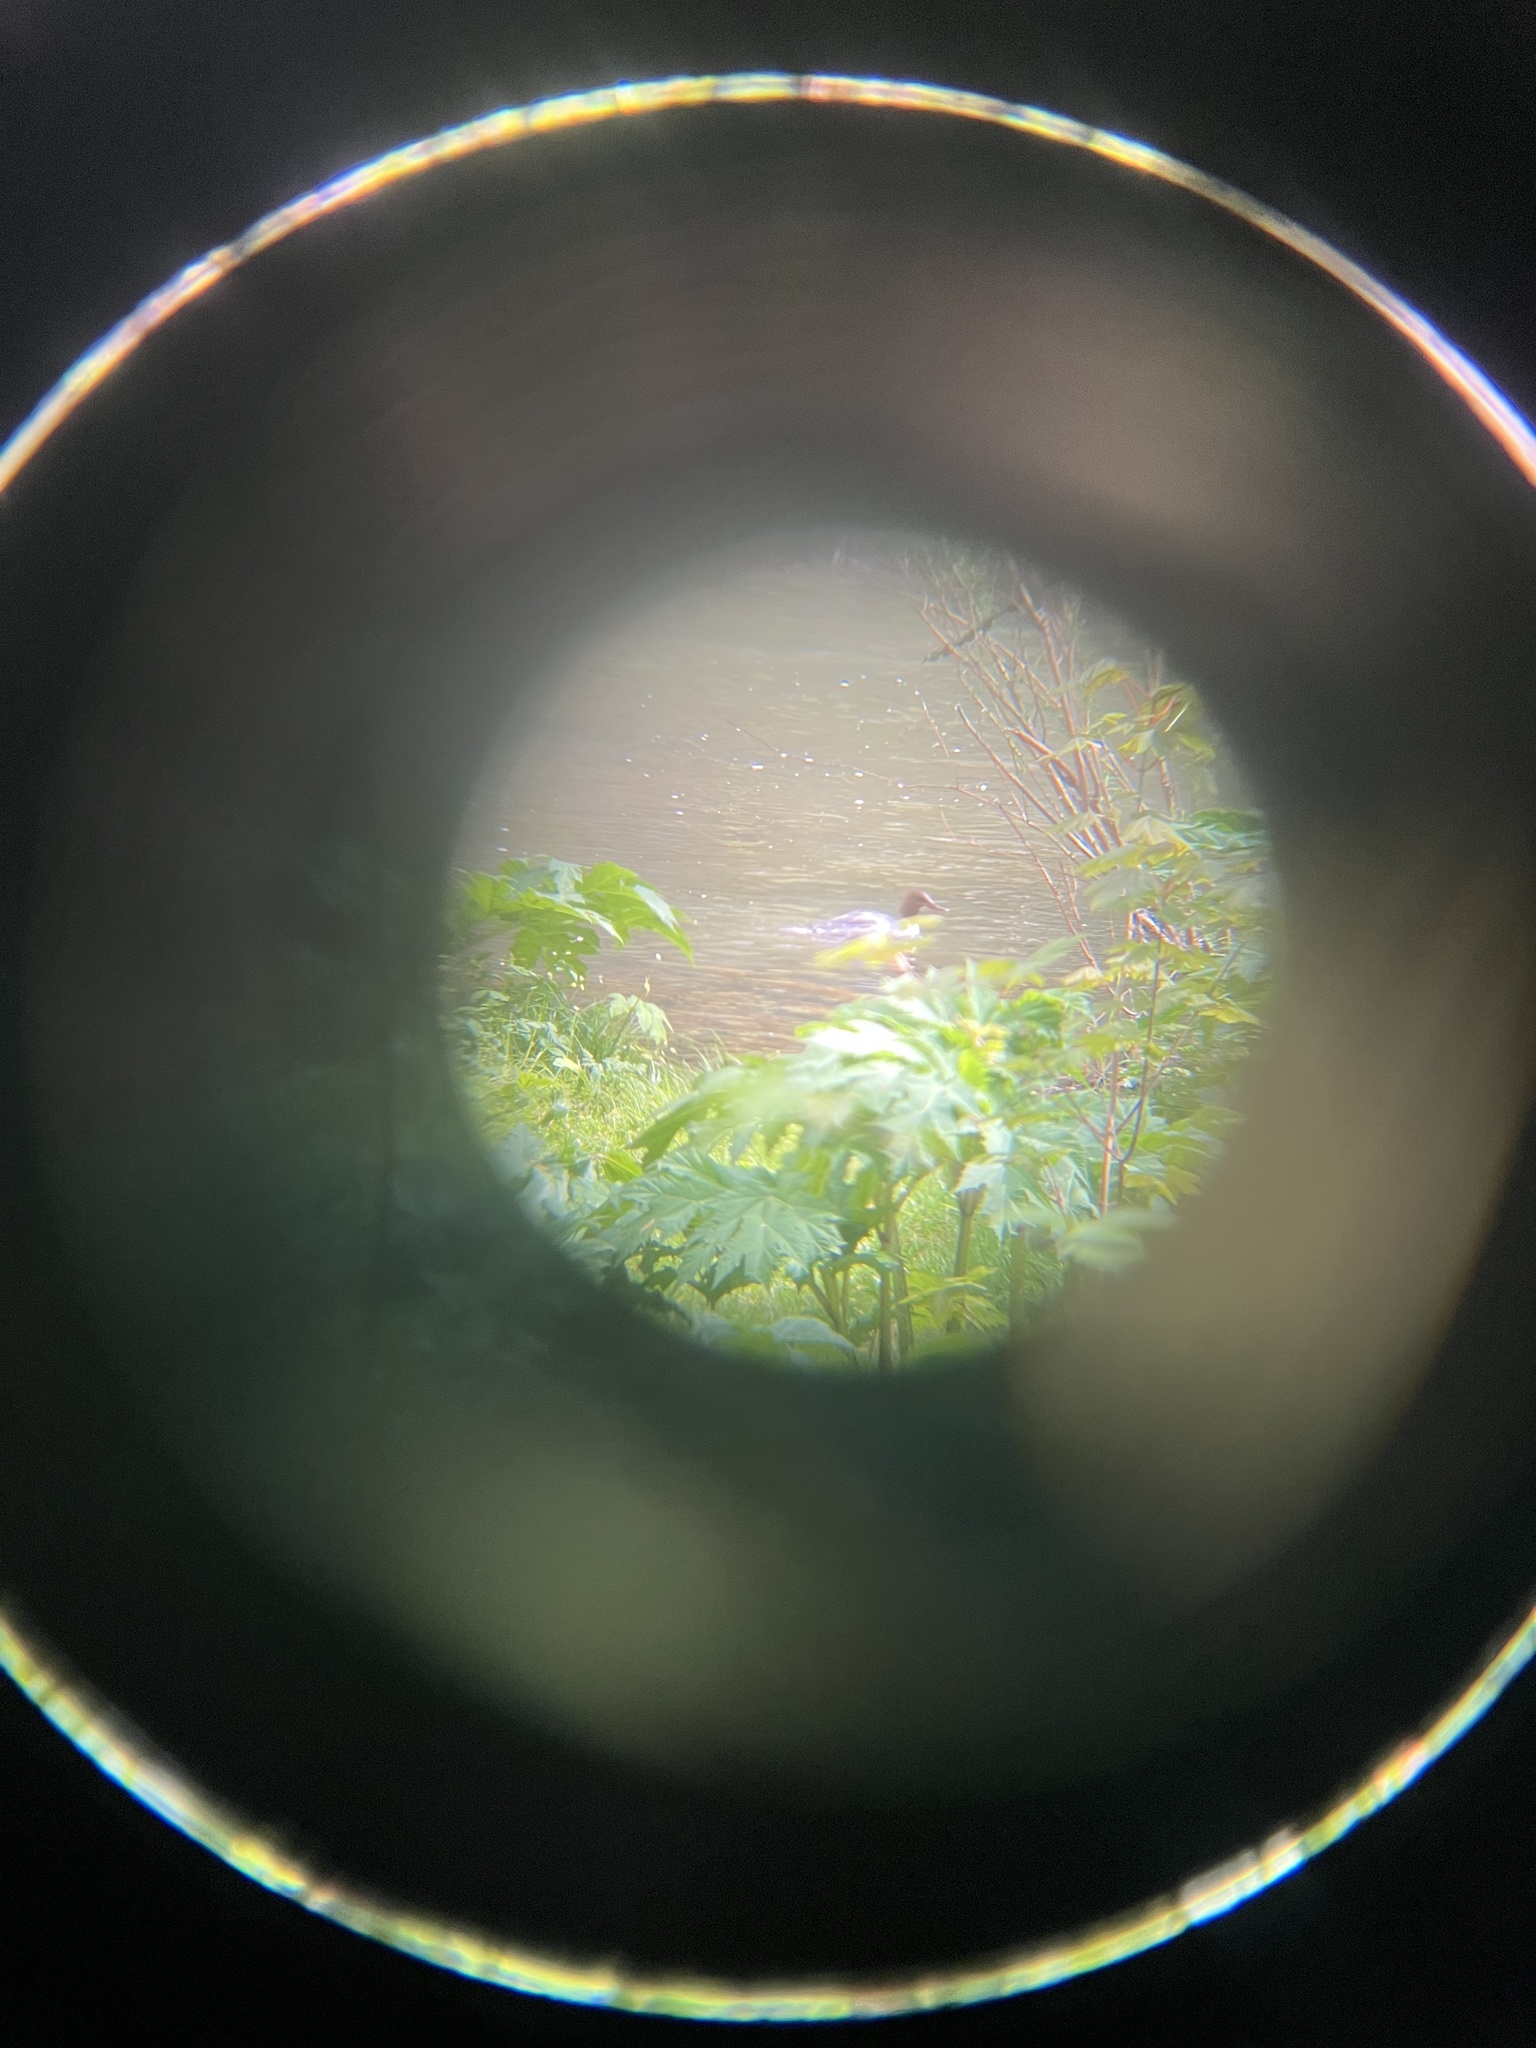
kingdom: Animalia
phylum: Chordata
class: Aves
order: Anseriformes
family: Anatidae
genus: Mergus
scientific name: Mergus merganser
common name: Common merganser
